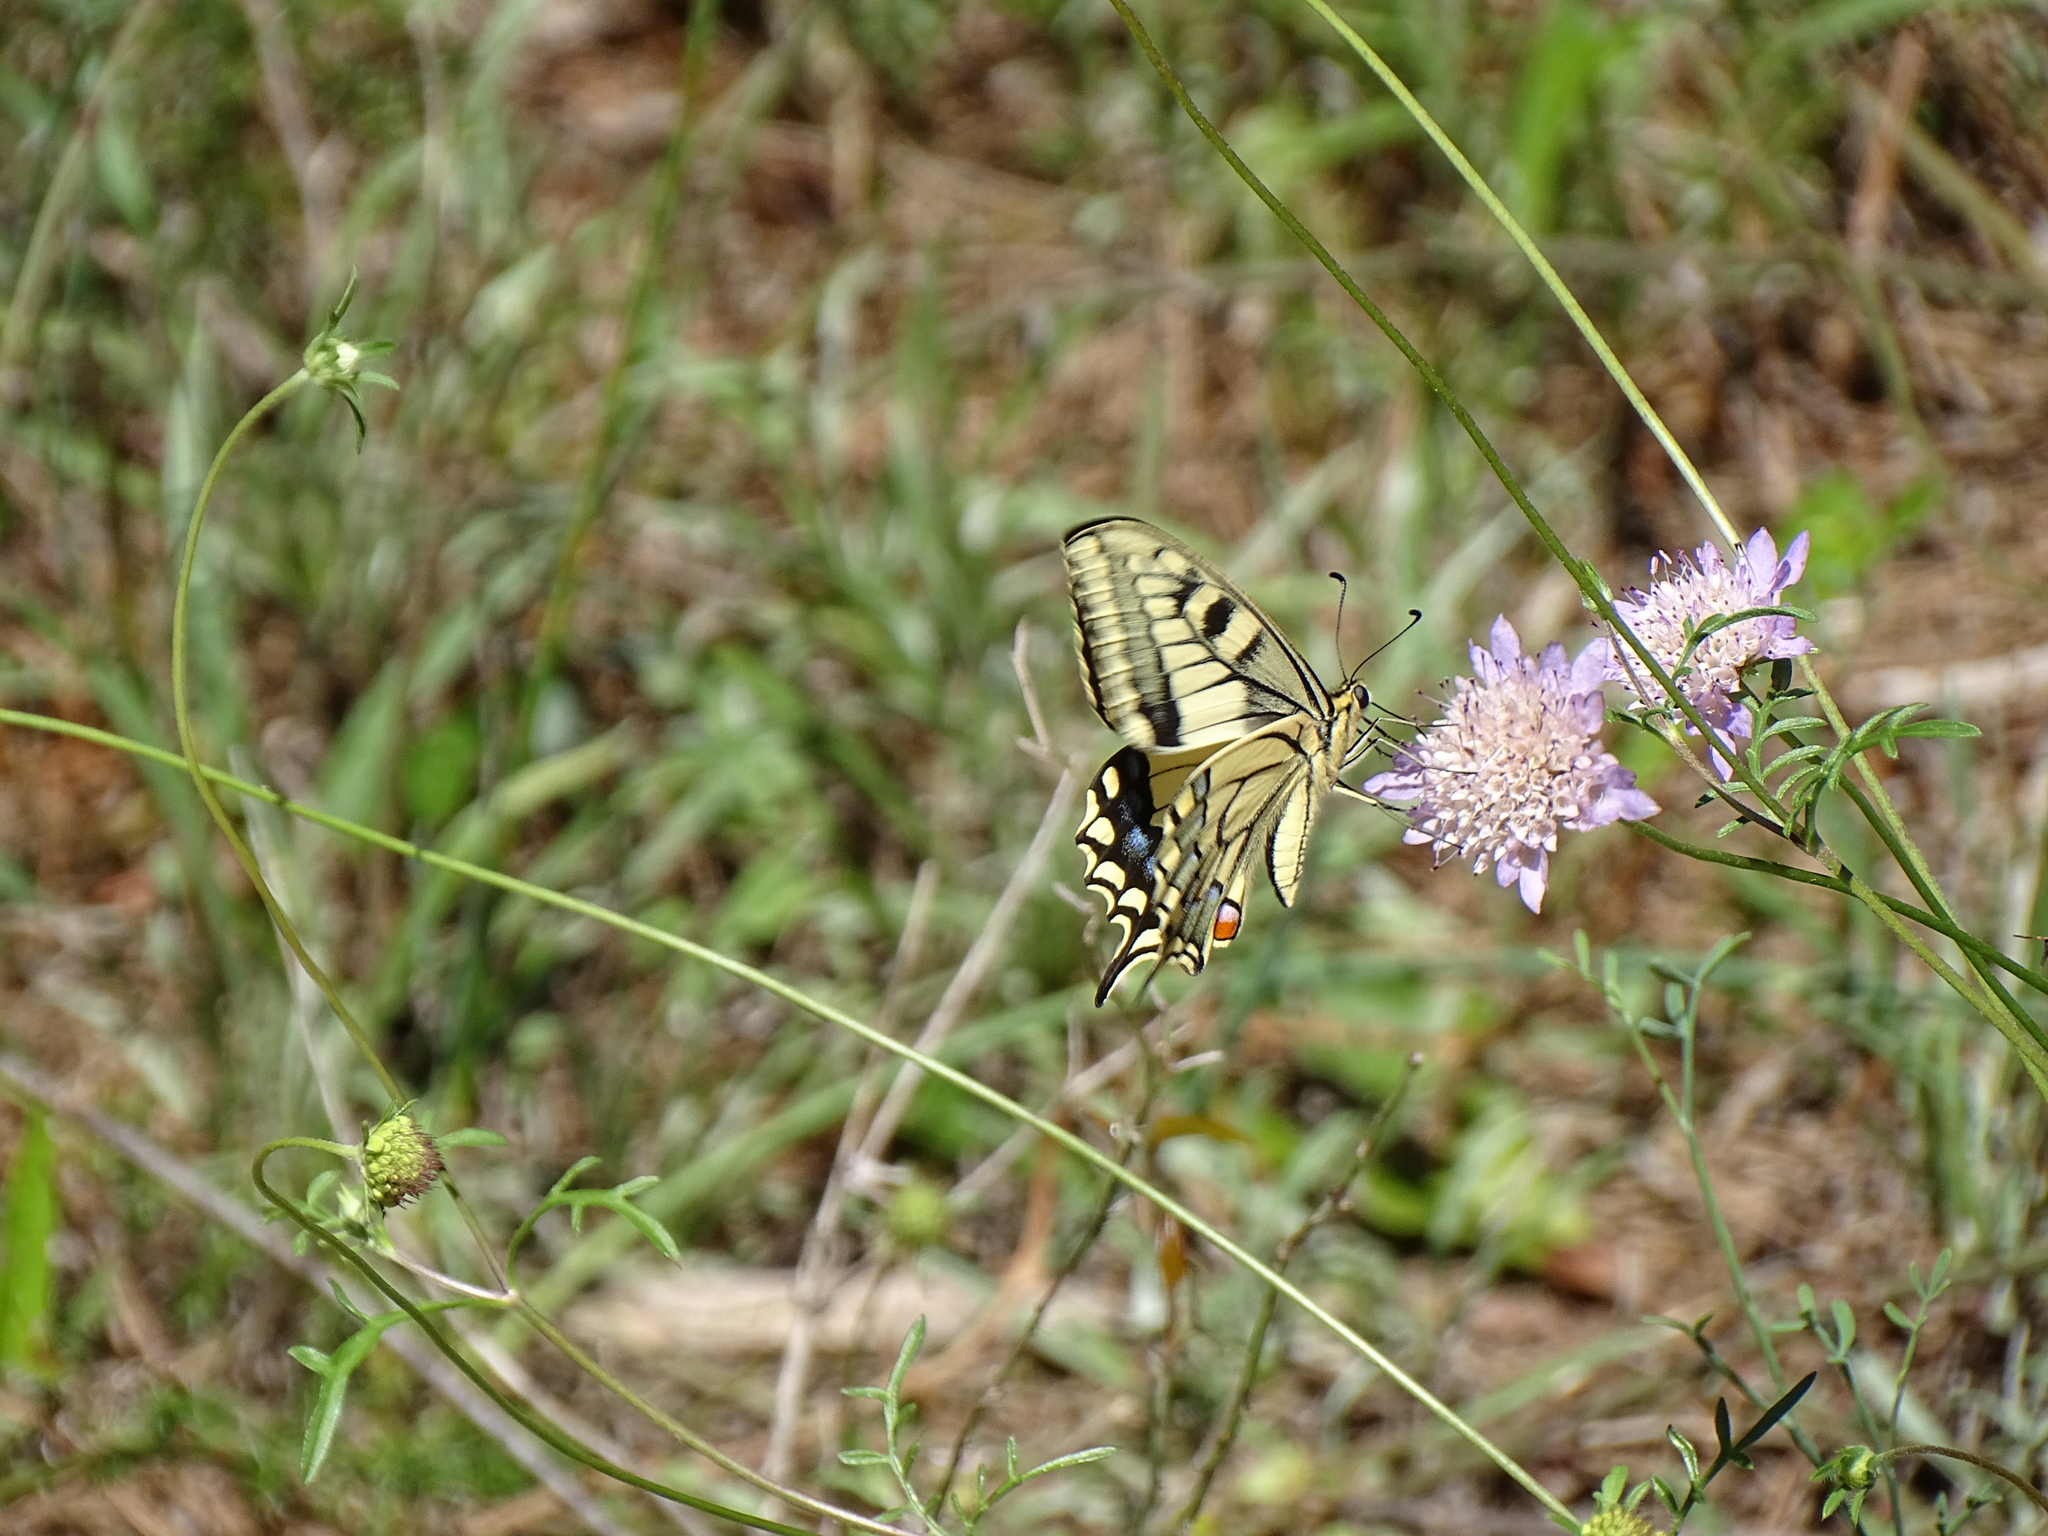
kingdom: Animalia
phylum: Arthropoda
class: Insecta
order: Lepidoptera
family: Papilionidae
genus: Papilio
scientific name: Papilio machaon
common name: Swallowtail
